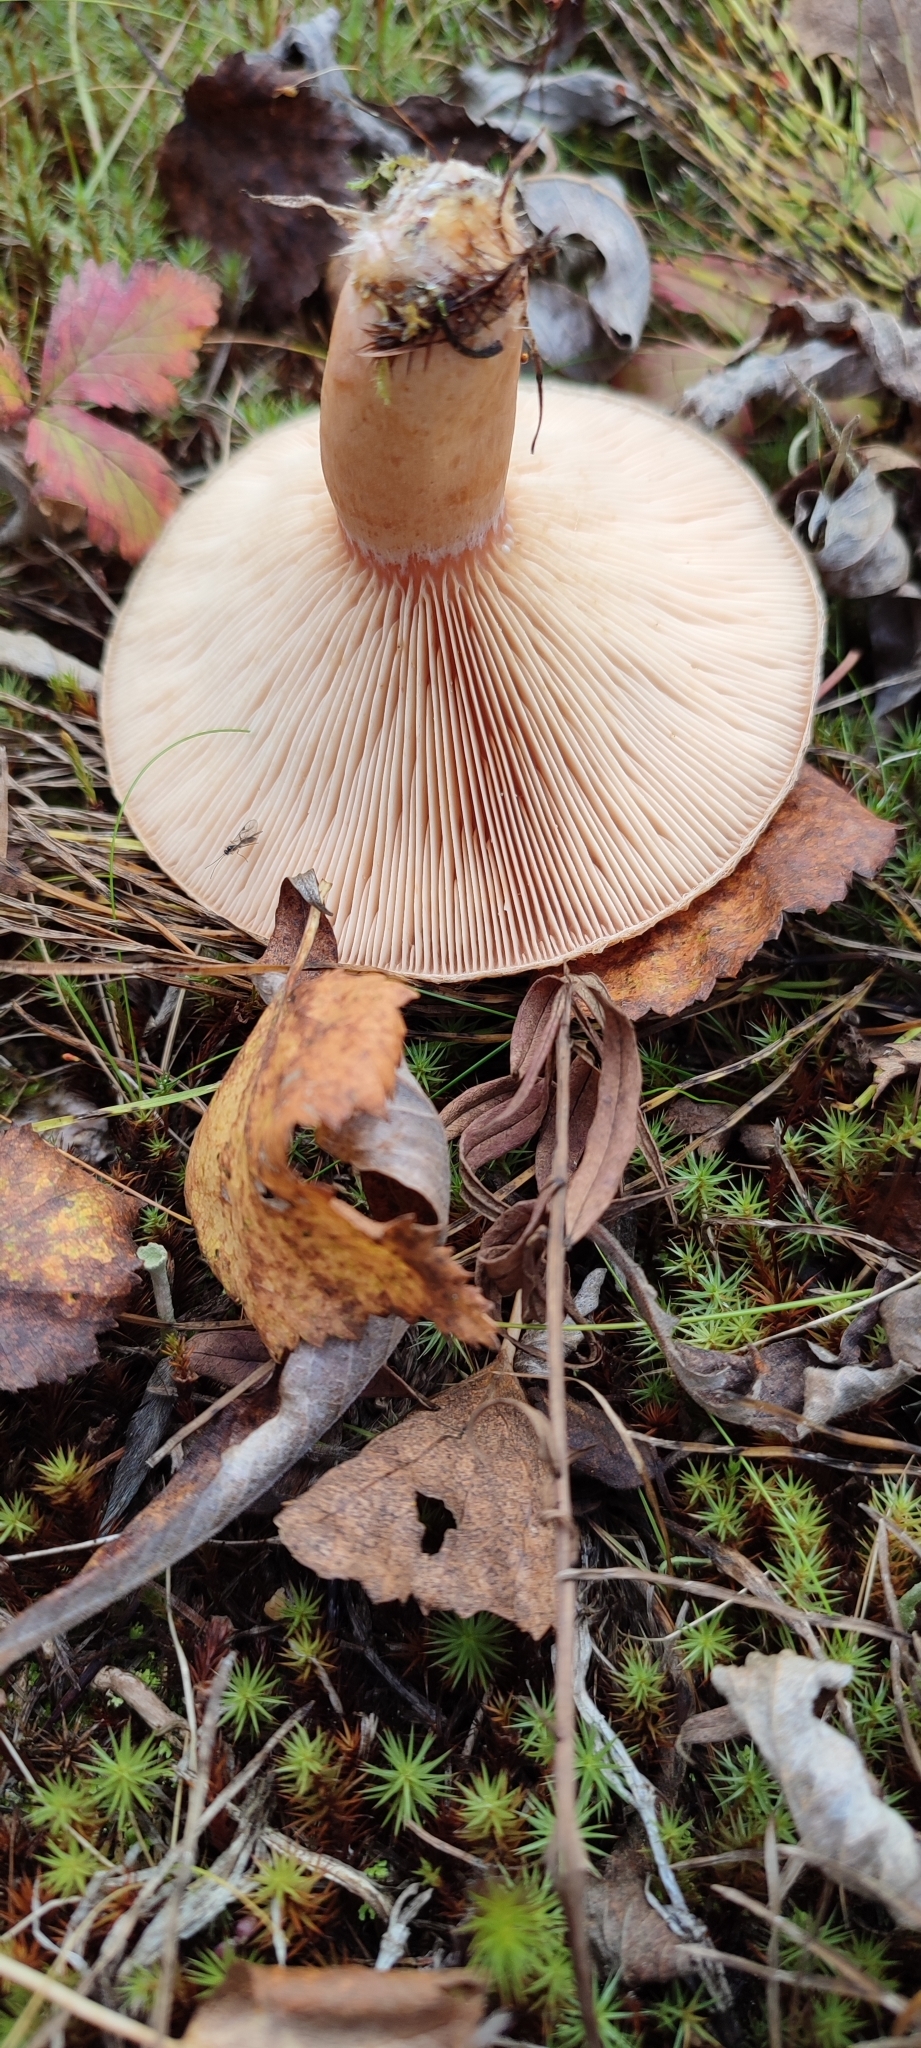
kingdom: Fungi
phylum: Basidiomycota
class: Agaricomycetes
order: Russulales
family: Russulaceae
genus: Lactarius
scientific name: Lactarius torminosus
